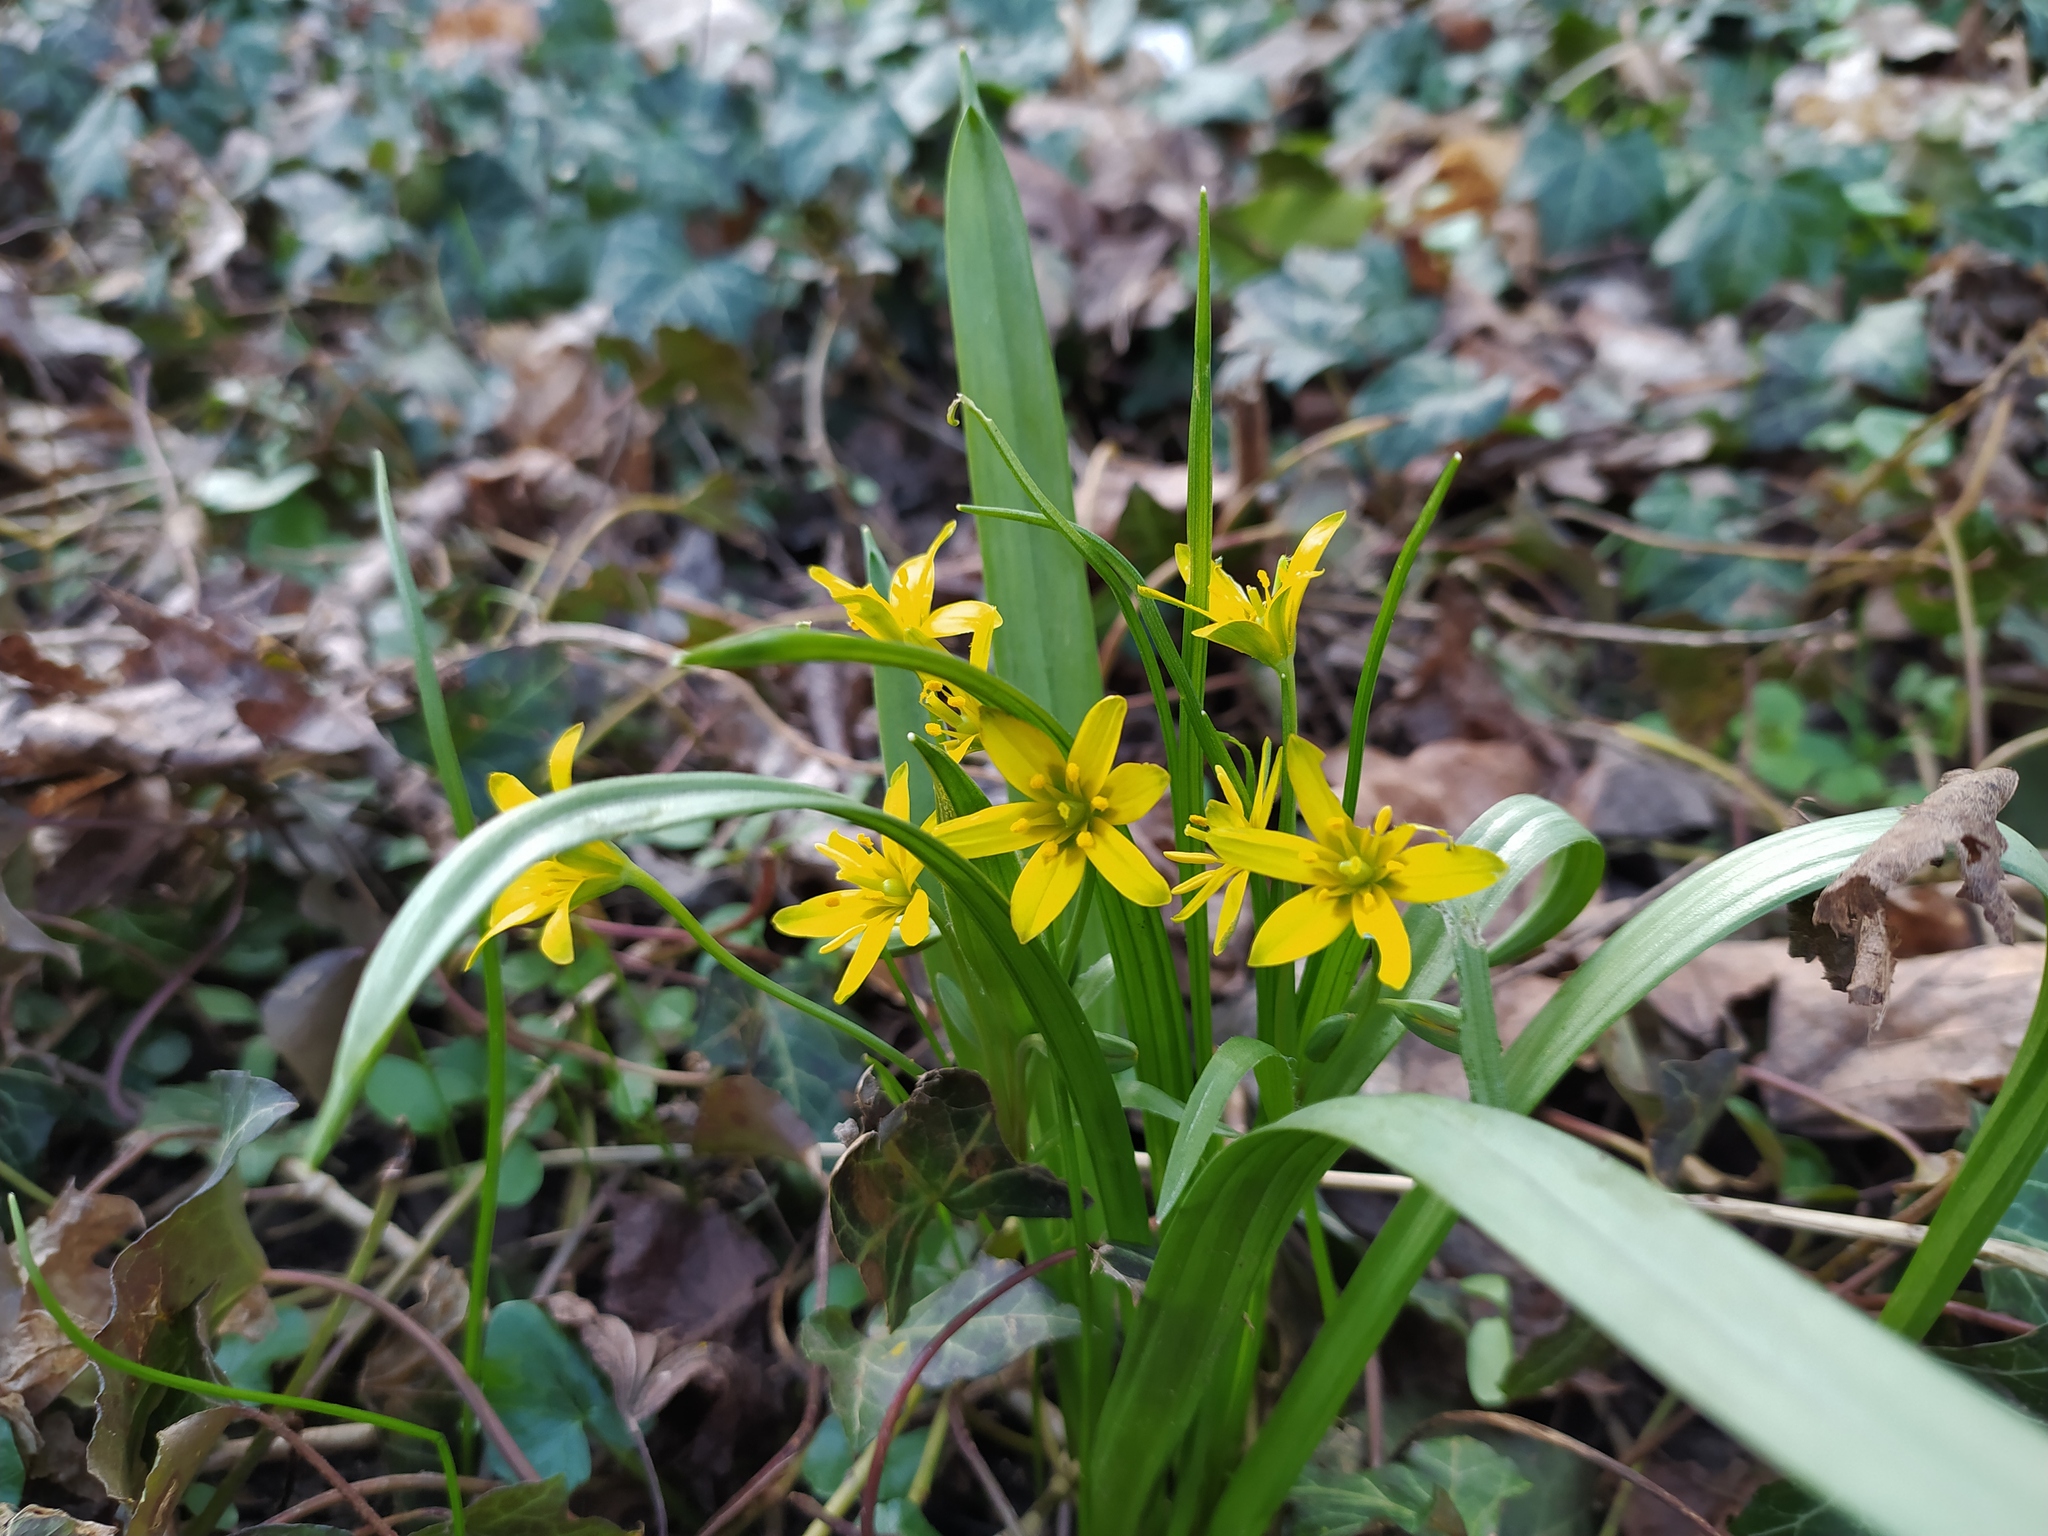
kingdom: Plantae
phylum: Tracheophyta
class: Liliopsida
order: Liliales
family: Liliaceae
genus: Gagea
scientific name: Gagea lutea
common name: Yellow star-of-bethlehem
